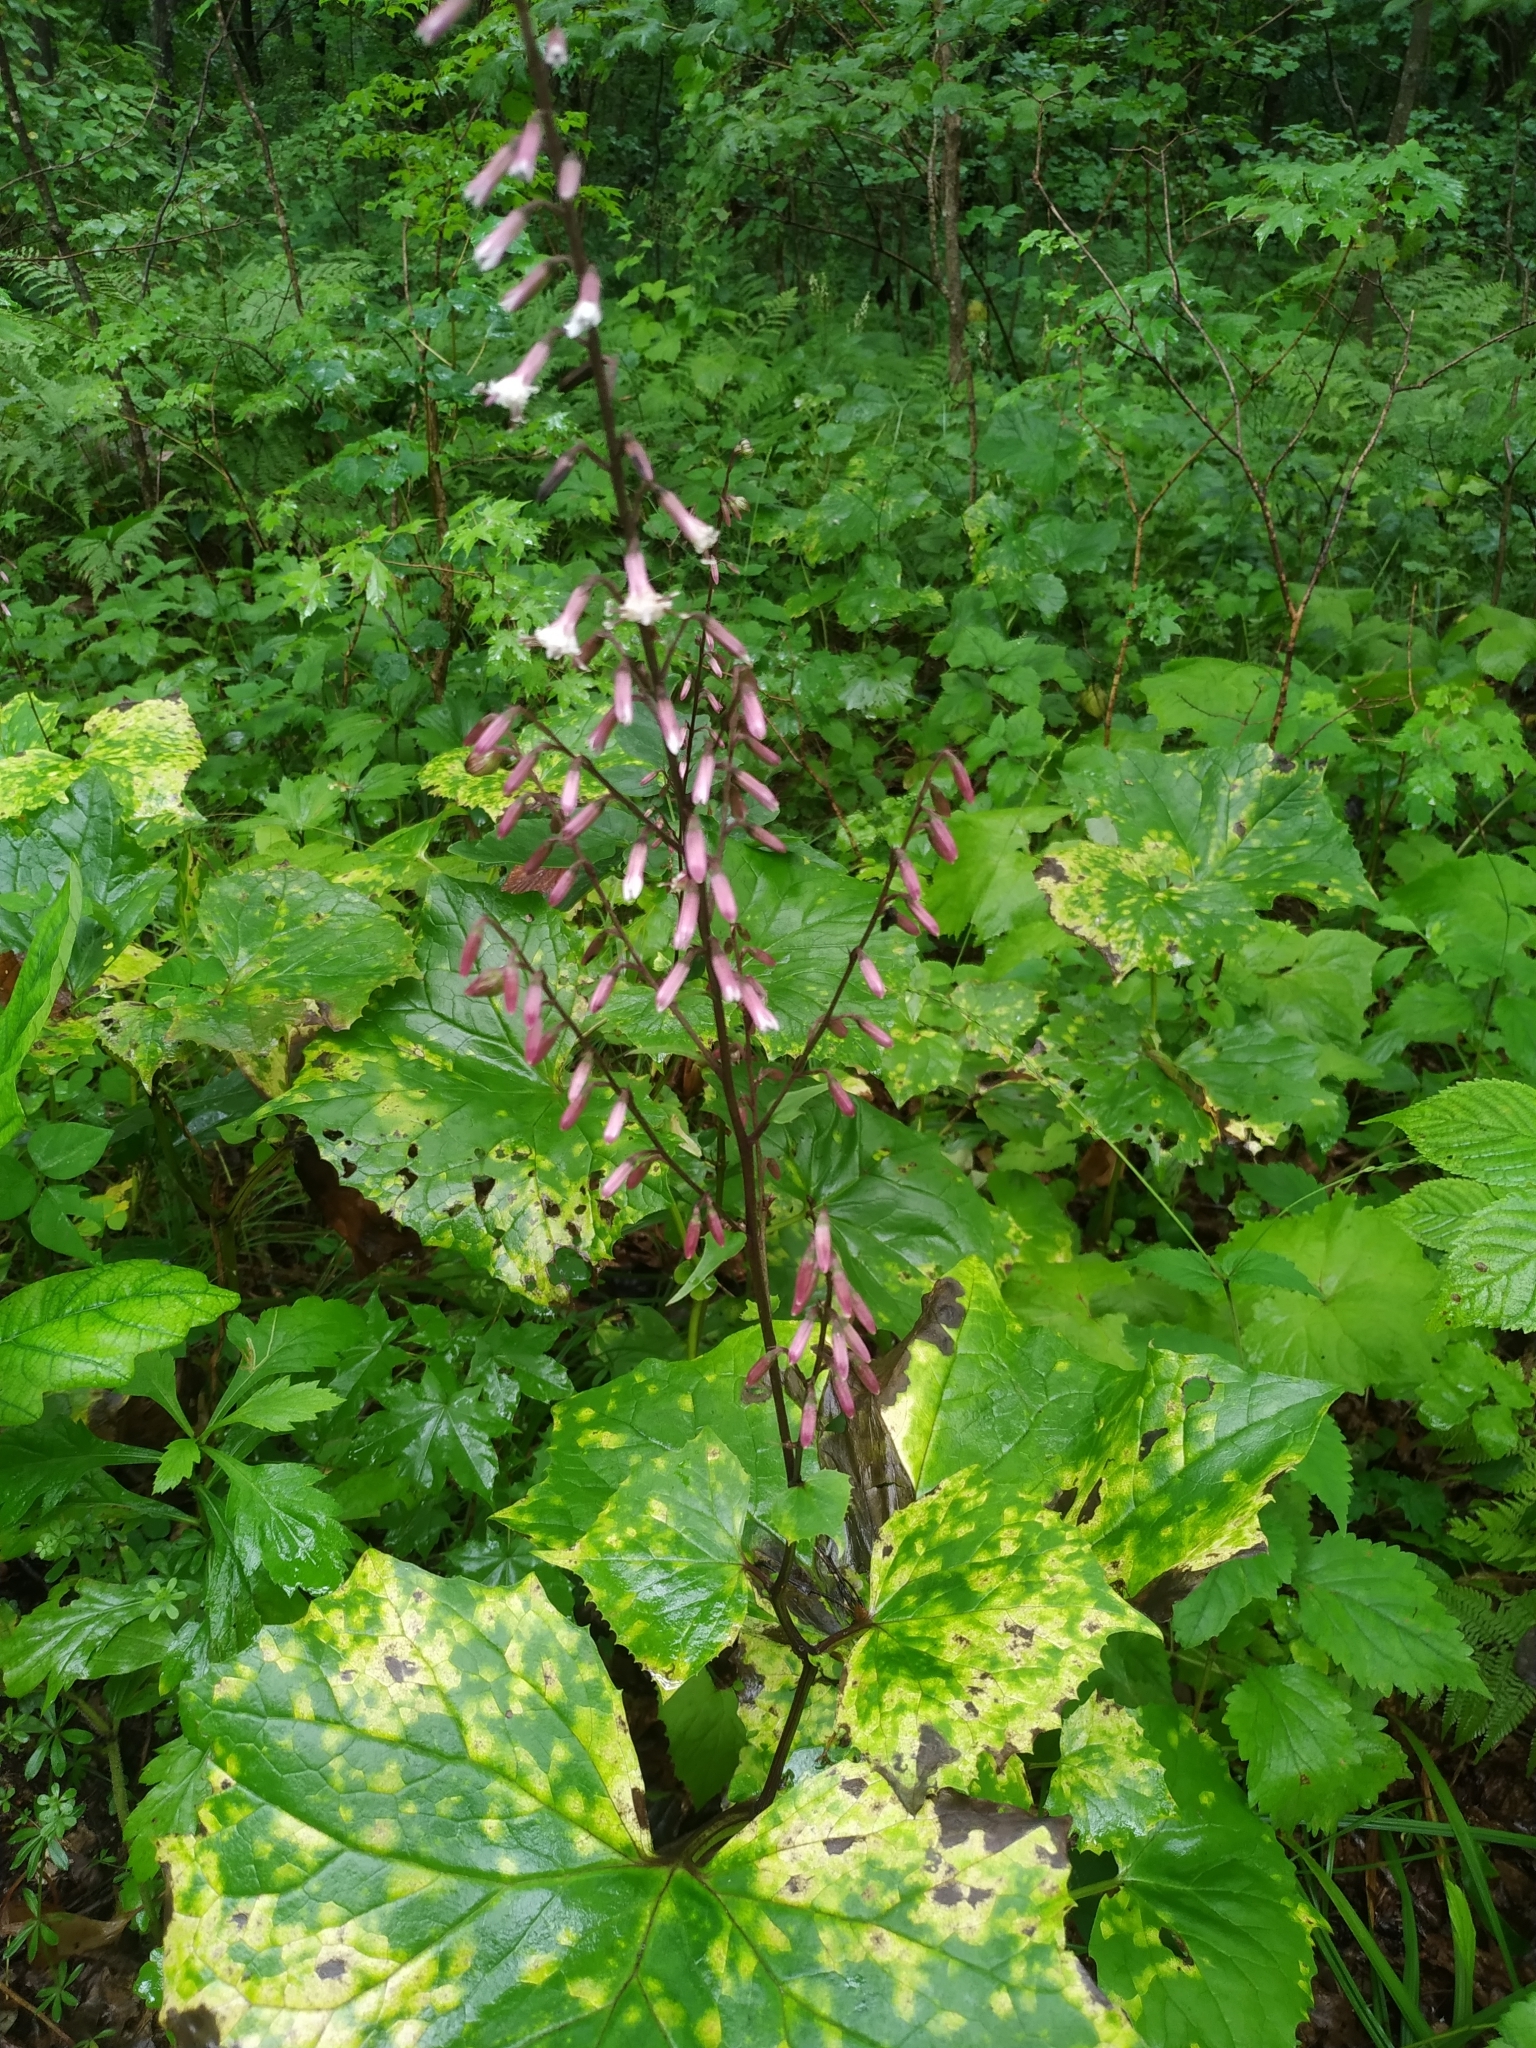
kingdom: Plantae
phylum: Tracheophyta
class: Magnoliopsida
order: Asterales
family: Asteraceae
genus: Parasenecio
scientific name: Parasenecio praetermissus
